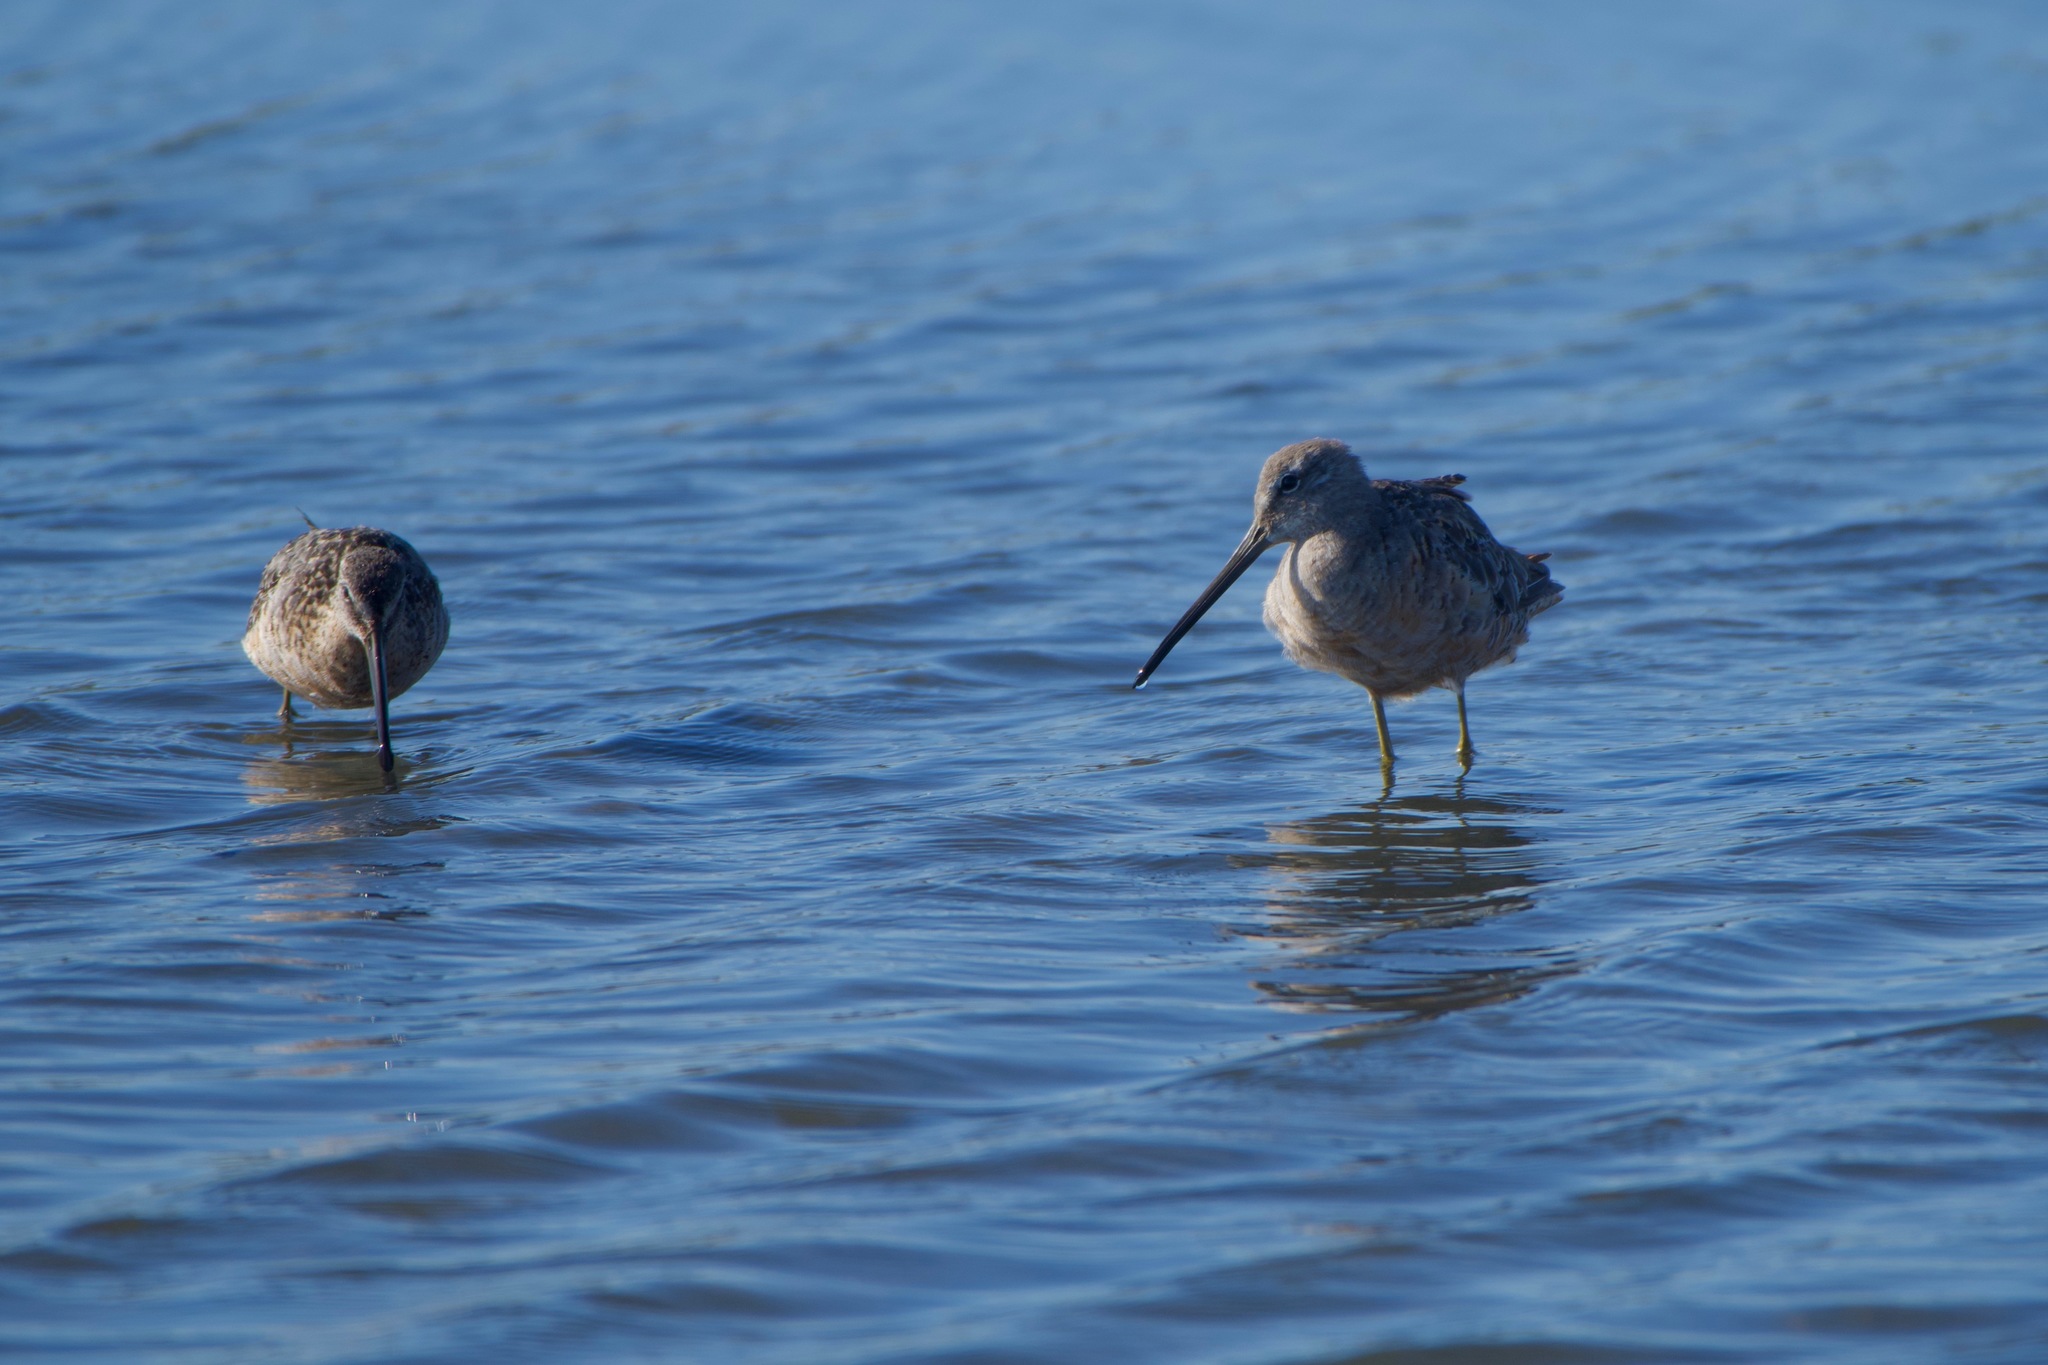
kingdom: Animalia
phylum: Chordata
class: Aves
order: Charadriiformes
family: Scolopacidae
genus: Limnodromus
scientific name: Limnodromus scolopaceus
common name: Long-billed dowitcher
